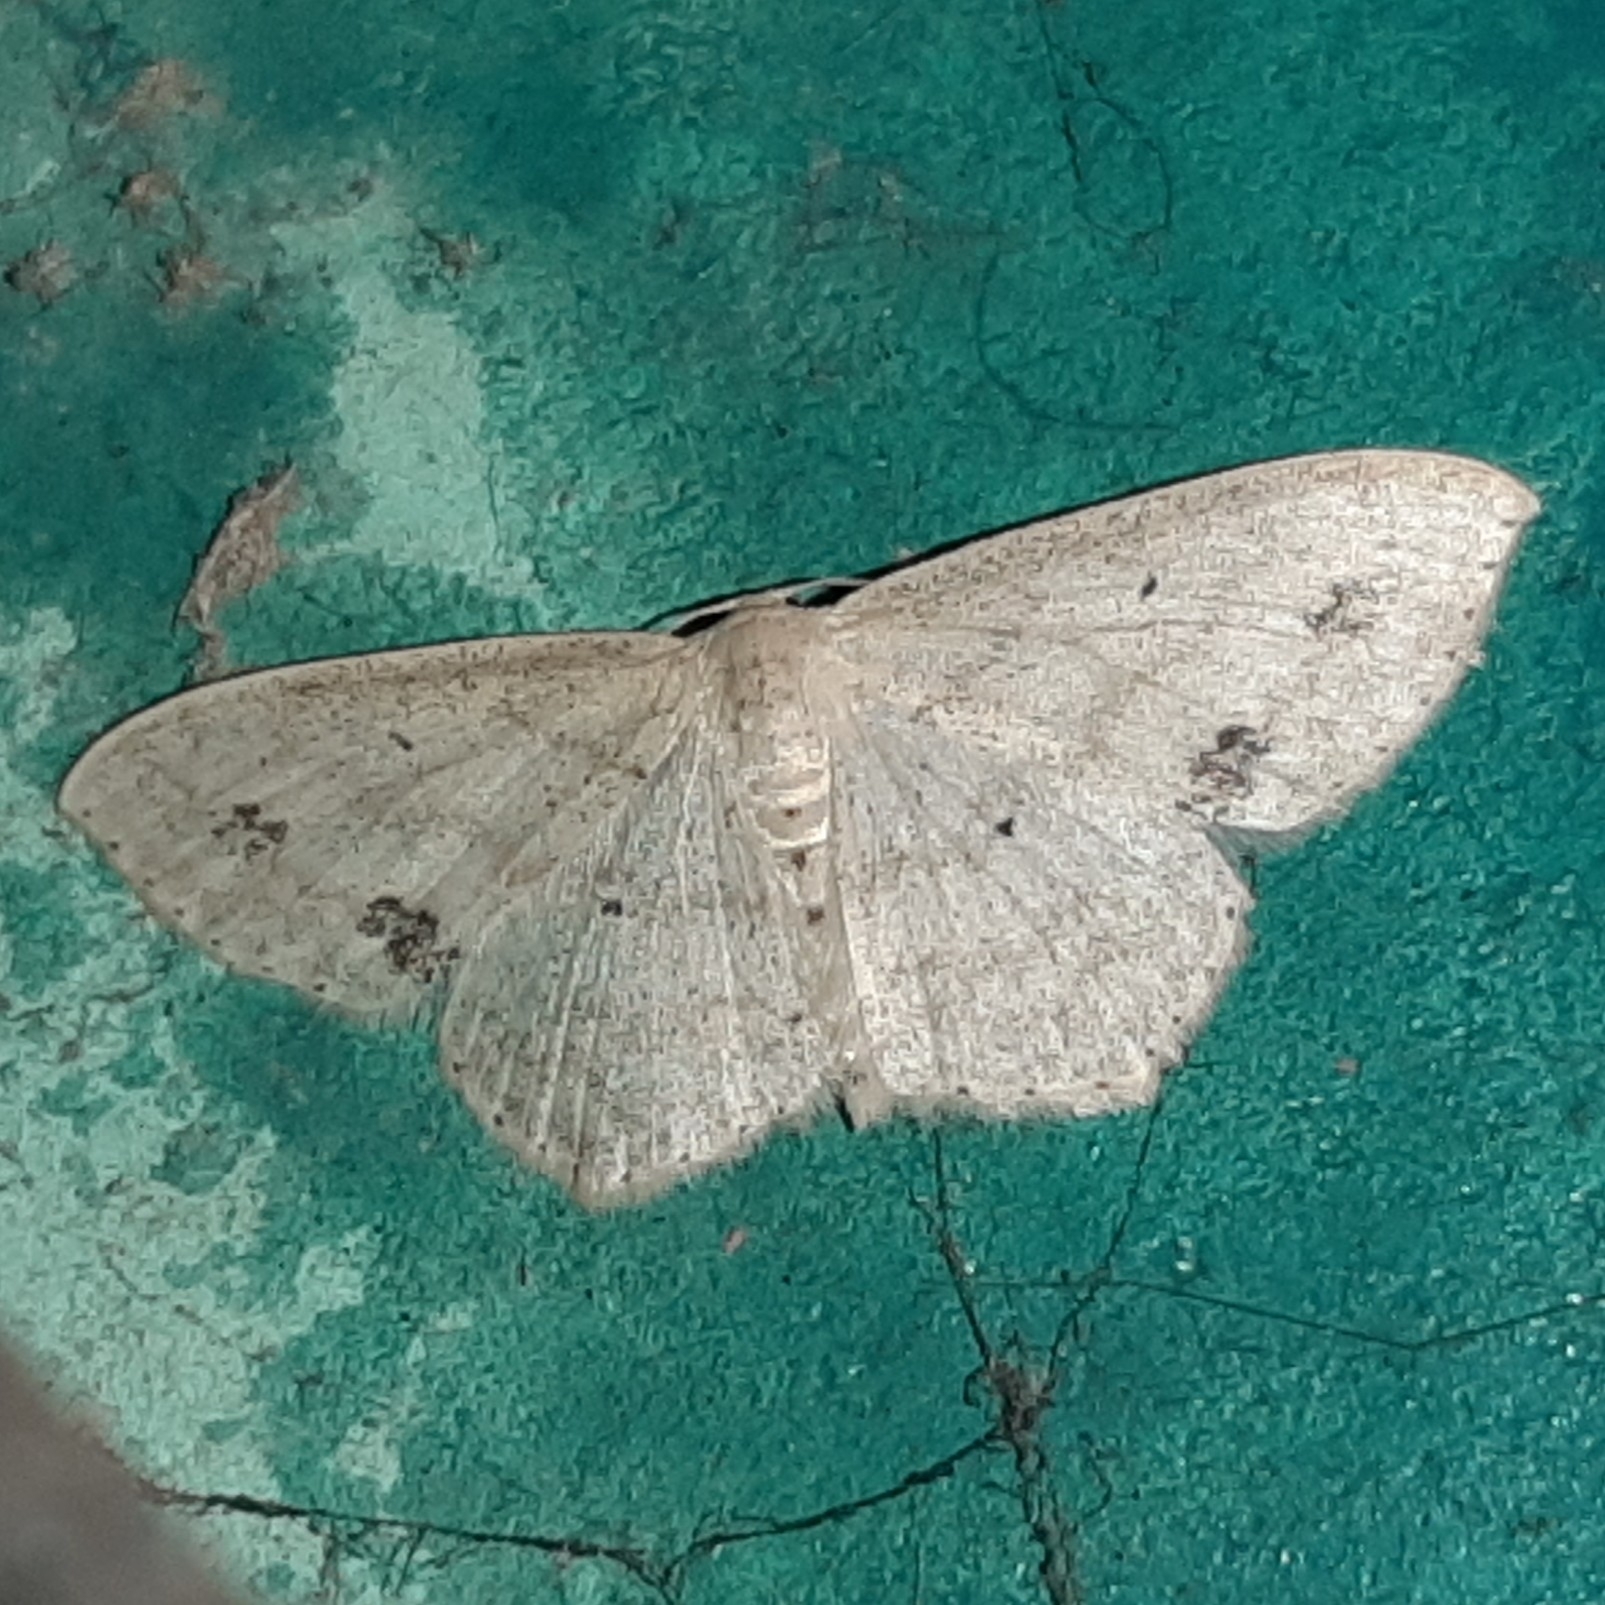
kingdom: Animalia
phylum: Arthropoda
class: Insecta
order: Lepidoptera
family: Geometridae
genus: Scopula
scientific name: Scopula phyxelis
